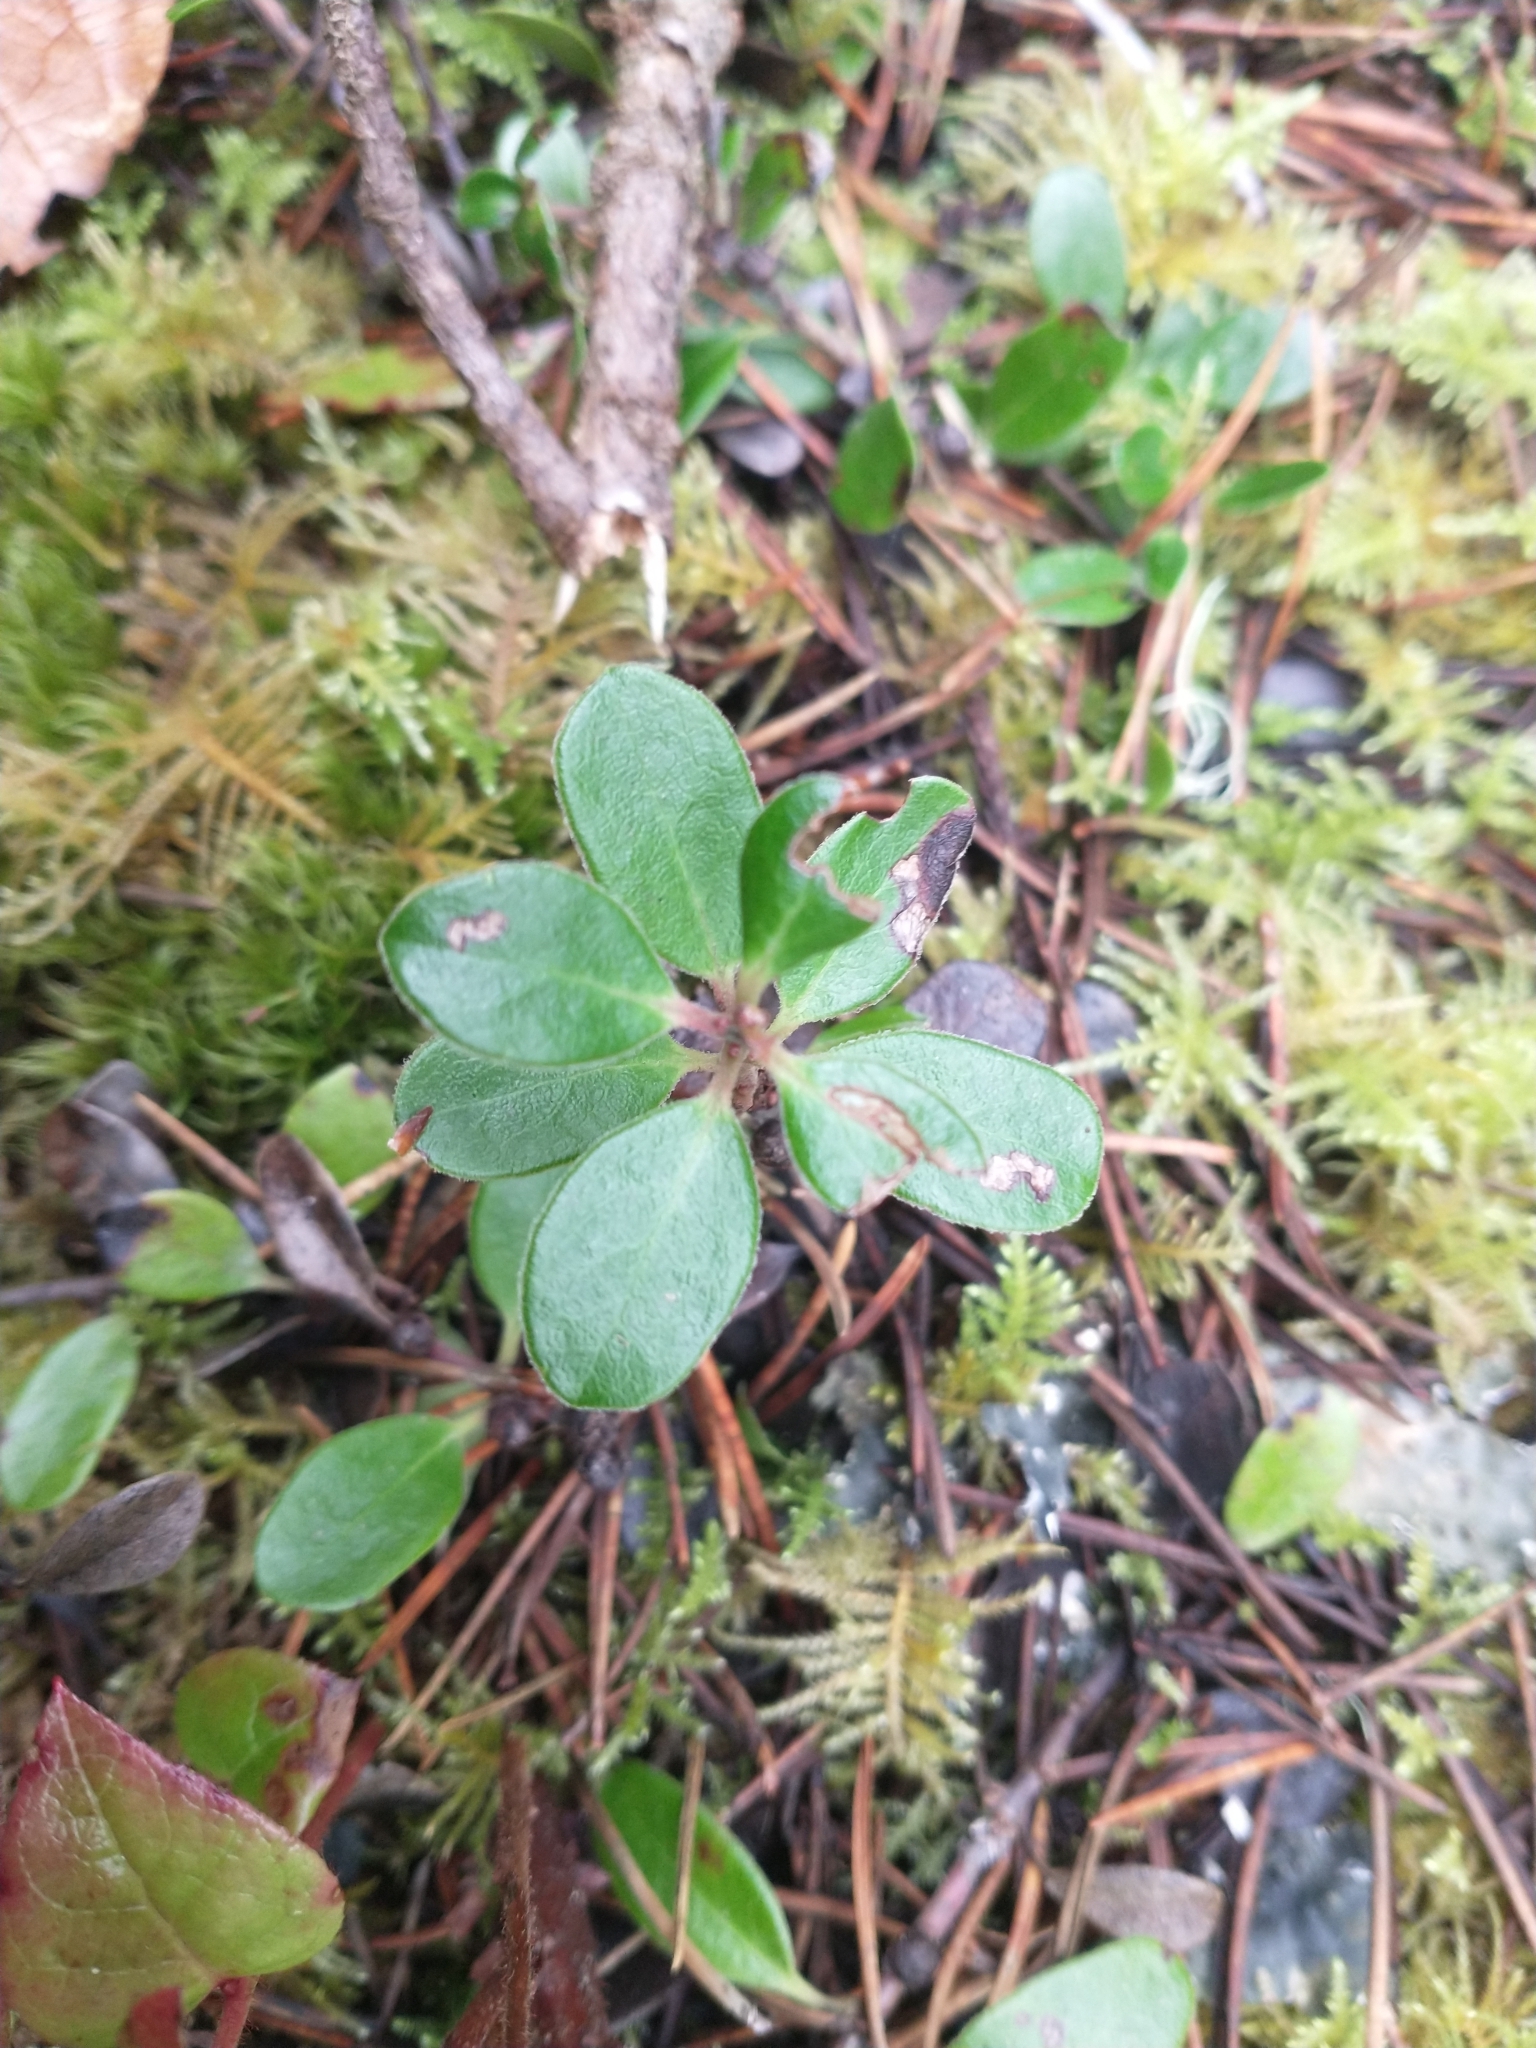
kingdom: Plantae
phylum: Tracheophyta
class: Magnoliopsida
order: Ericales
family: Ericaceae
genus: Arctostaphylos
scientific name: Arctostaphylos uva-ursi
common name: Bearberry
